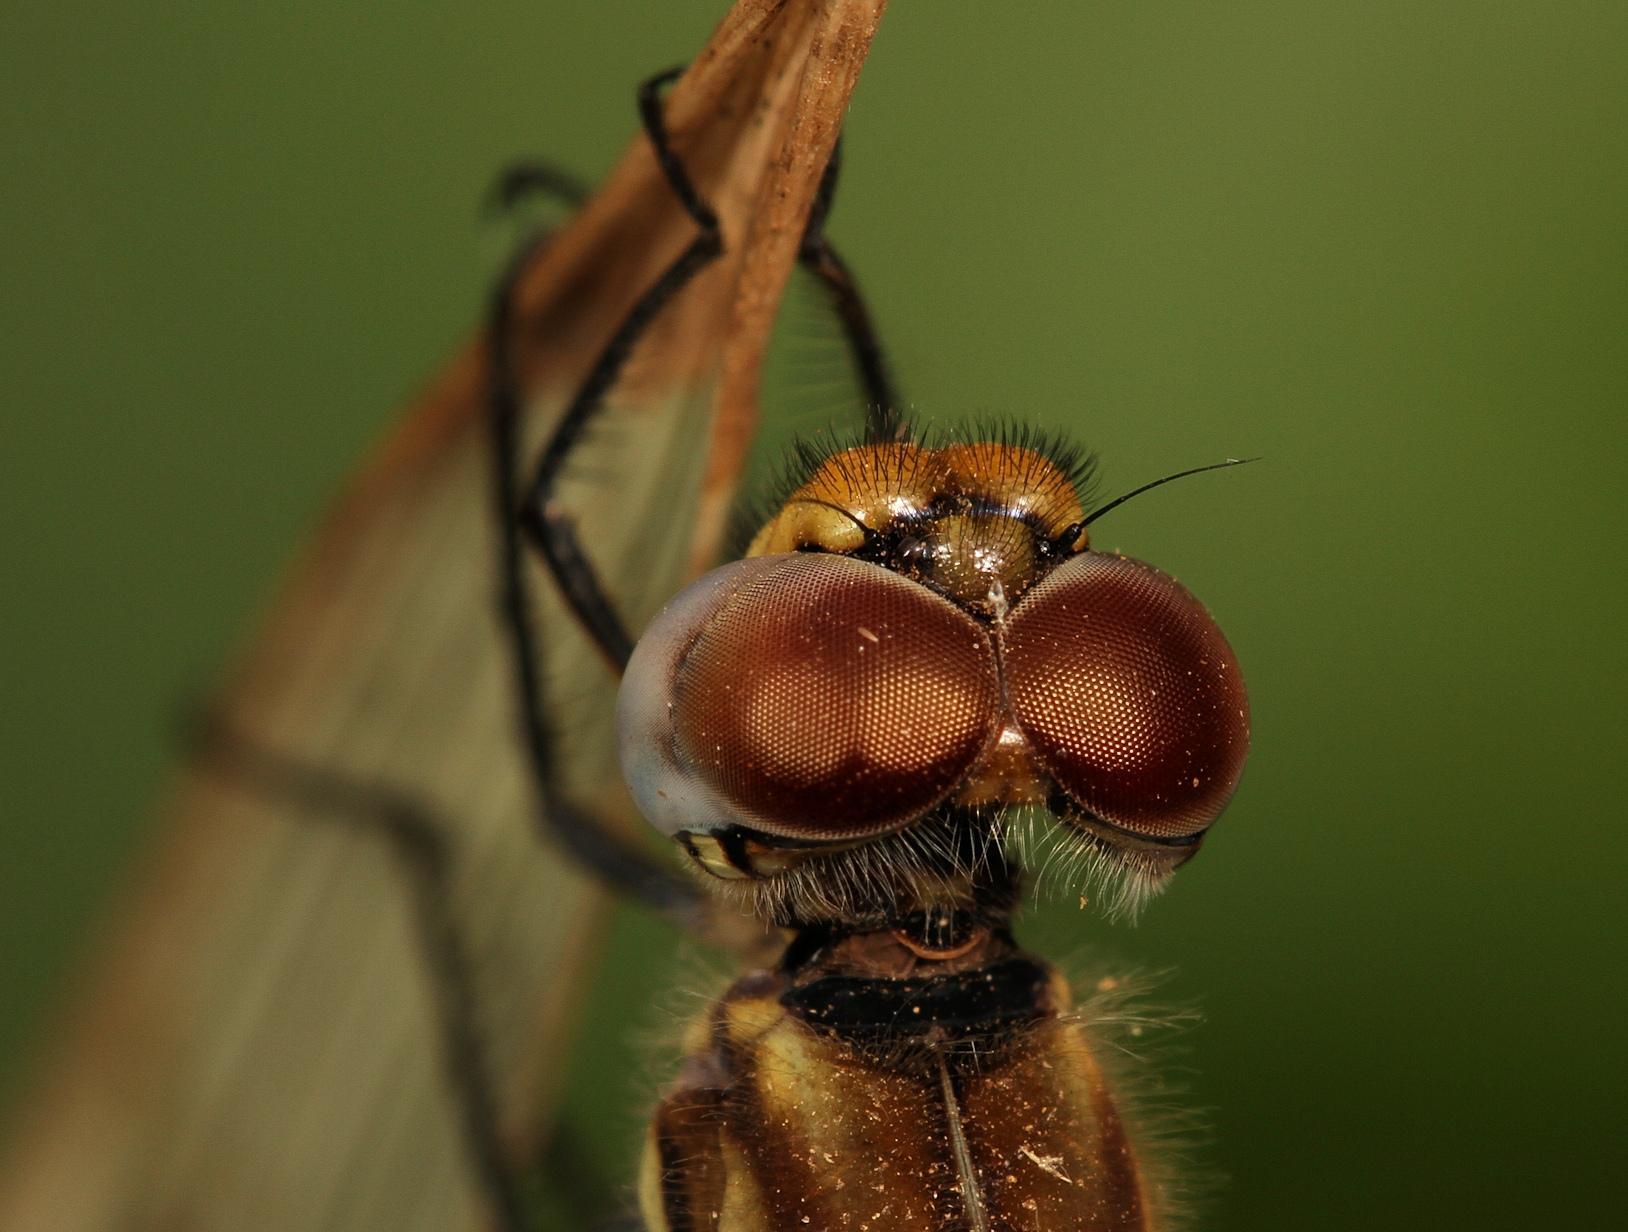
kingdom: Animalia
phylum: Arthropoda
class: Insecta
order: Odonata
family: Libellulidae
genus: Trithemis
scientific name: Trithemis furva
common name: Dark dropwing
